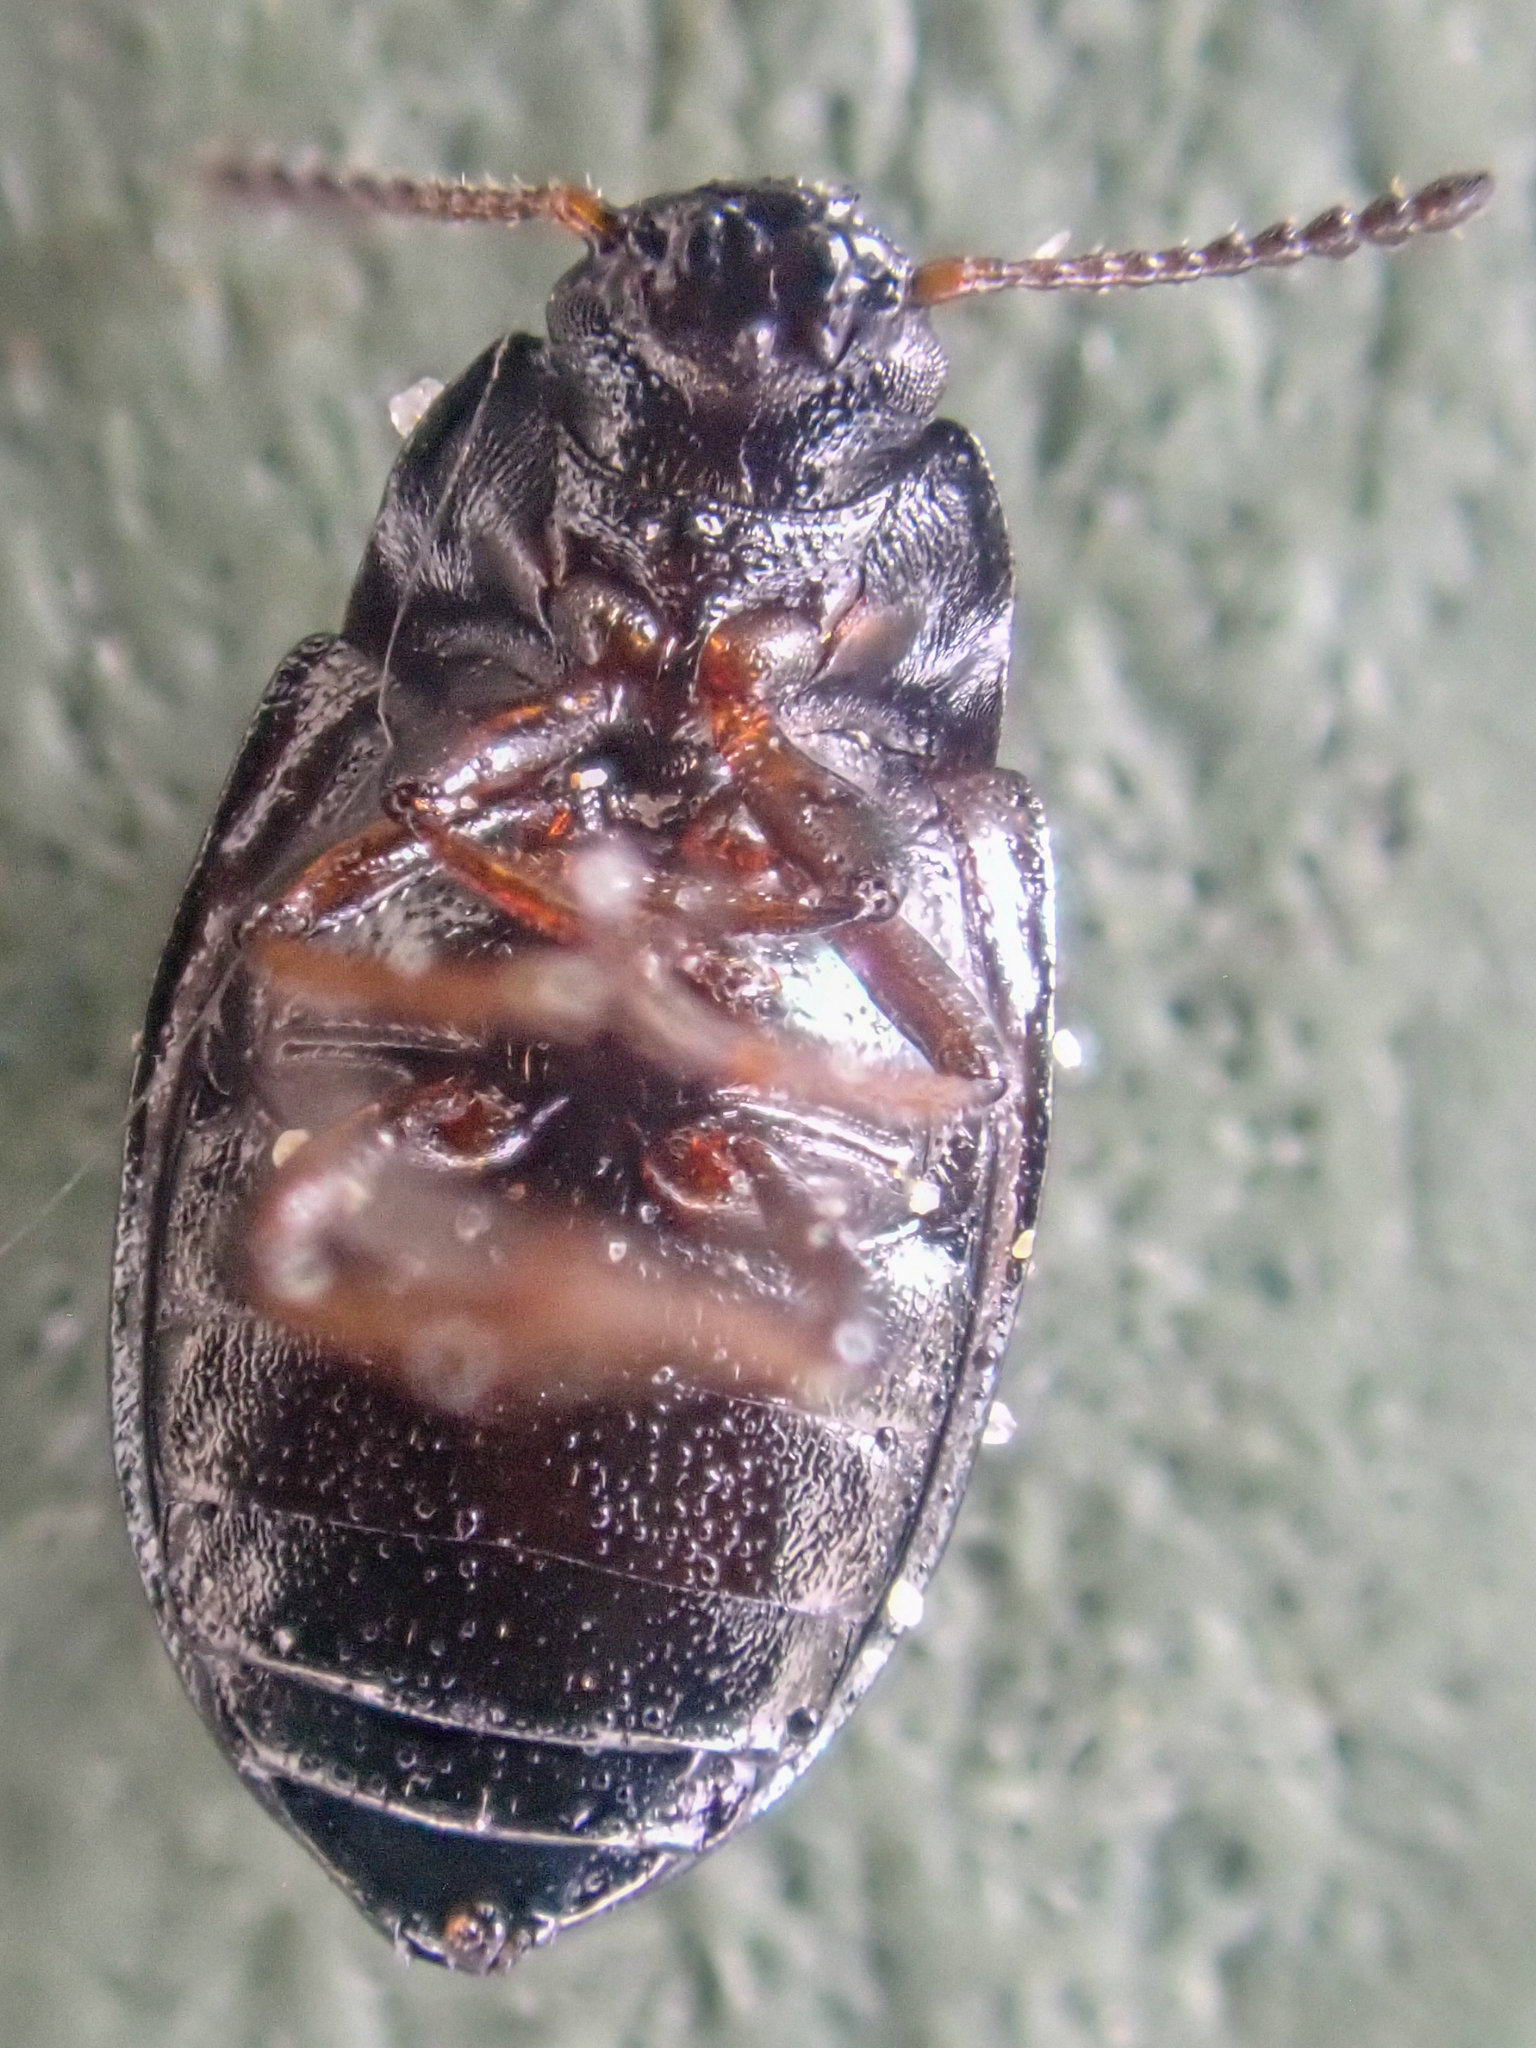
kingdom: Animalia
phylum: Arthropoda
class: Insecta
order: Coleoptera
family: Tenebrionidae
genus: Phaleromela
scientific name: Phaleromela variegata
